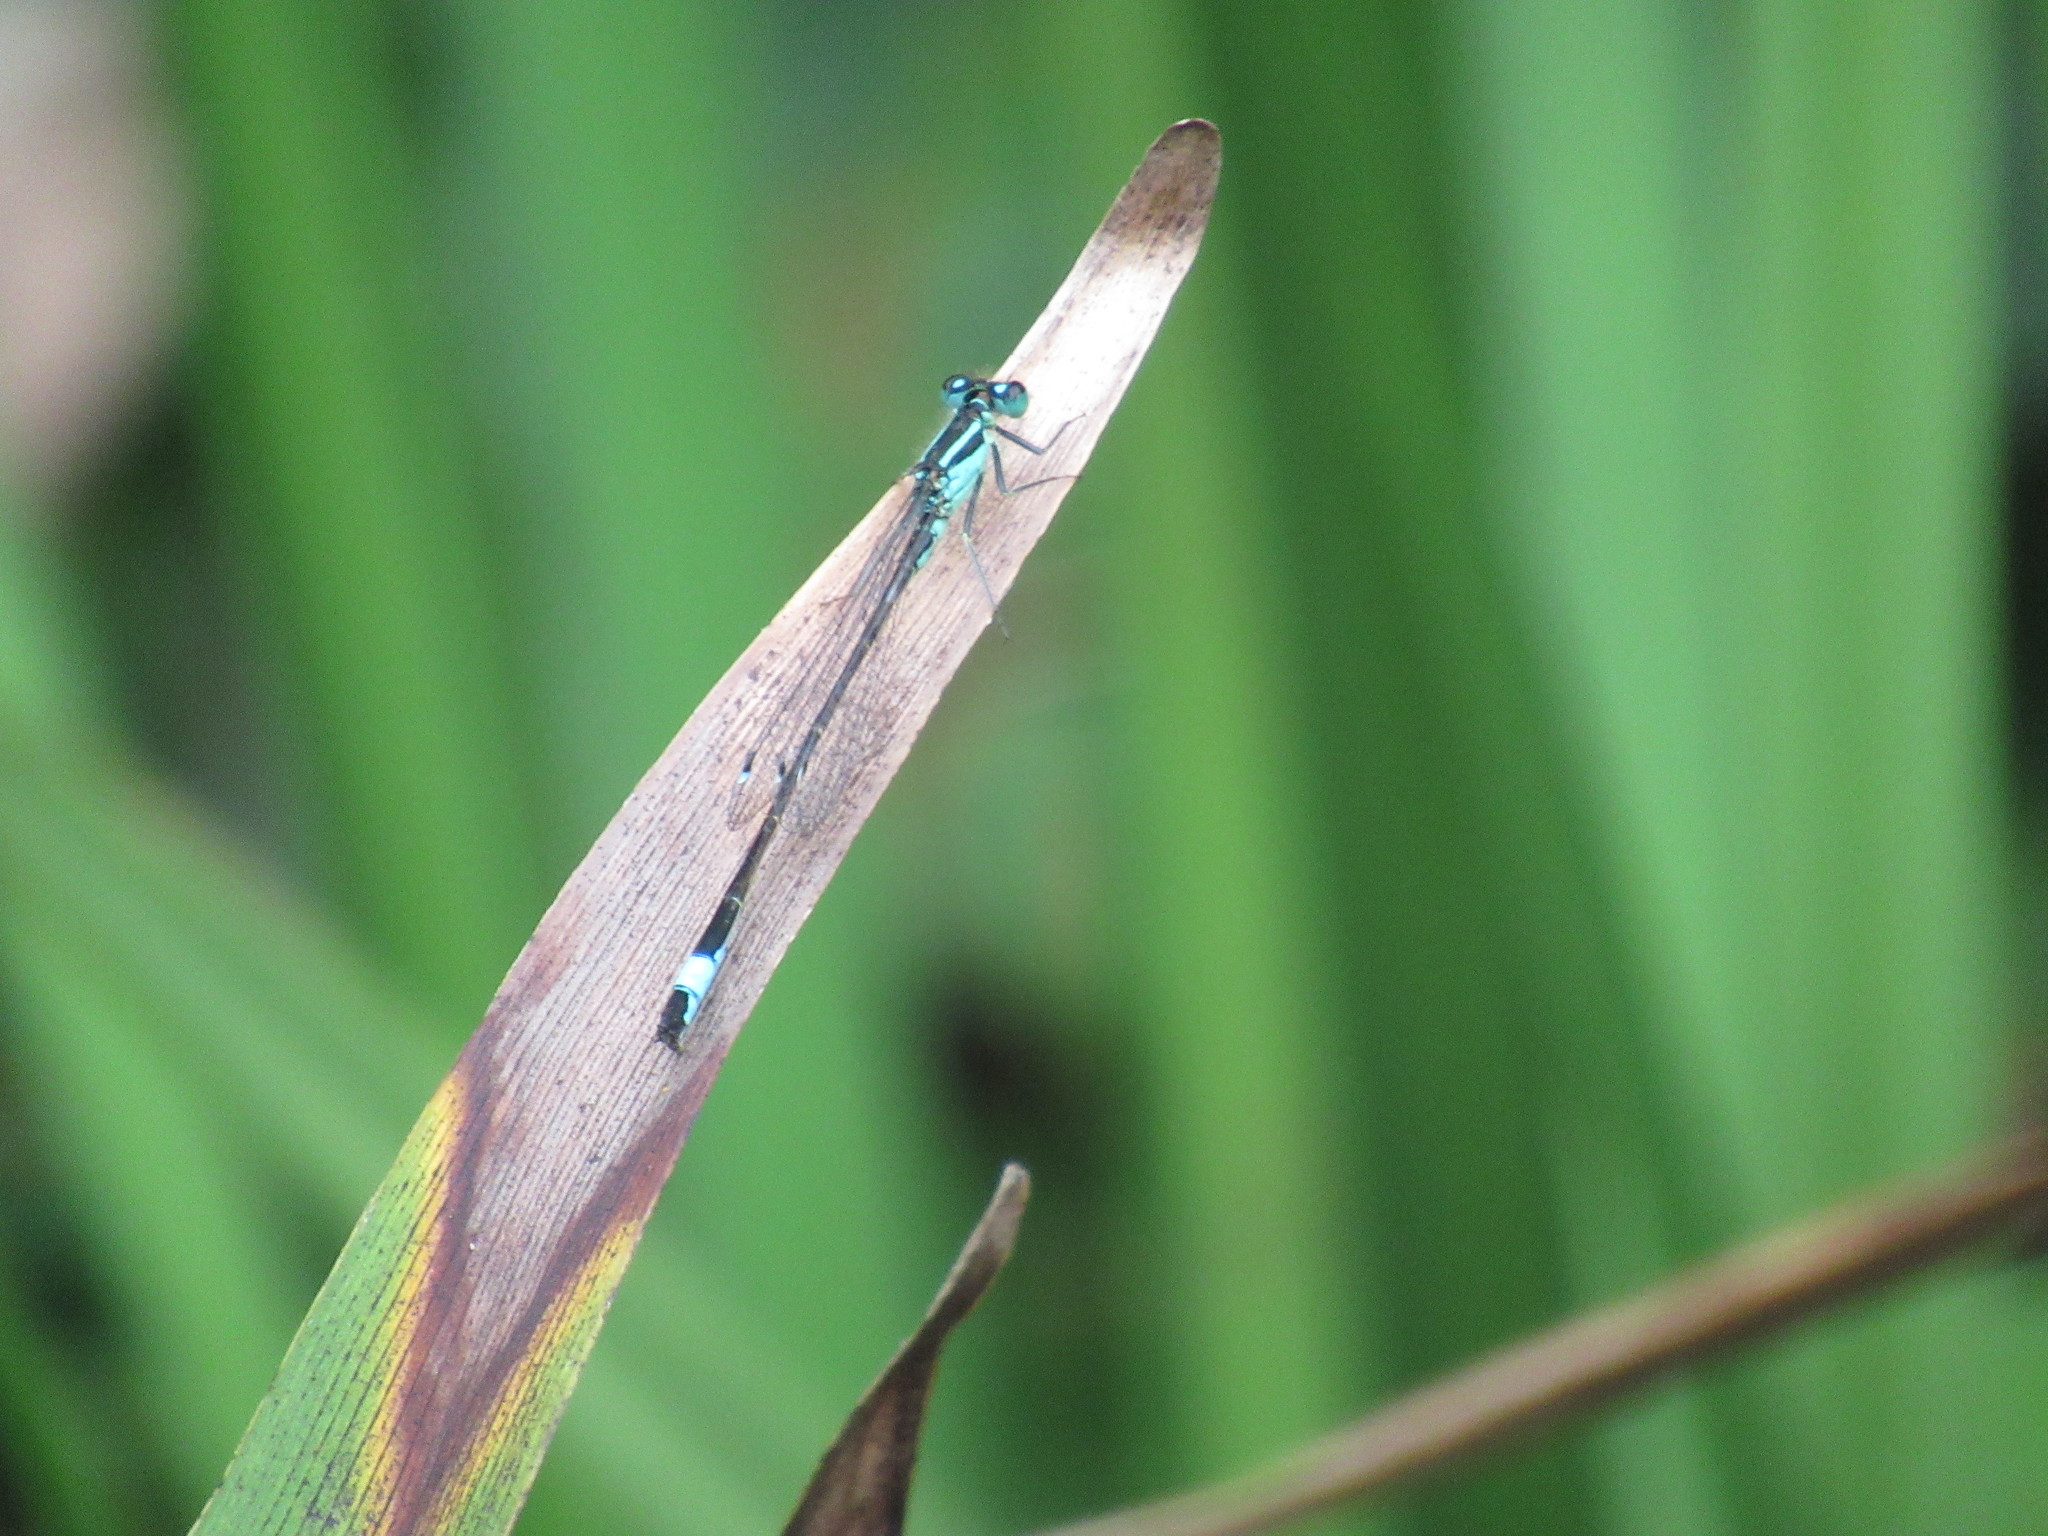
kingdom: Animalia
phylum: Arthropoda
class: Insecta
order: Odonata
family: Coenagrionidae
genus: Ischnura
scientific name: Ischnura elegans
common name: Blue-tailed damselfly
